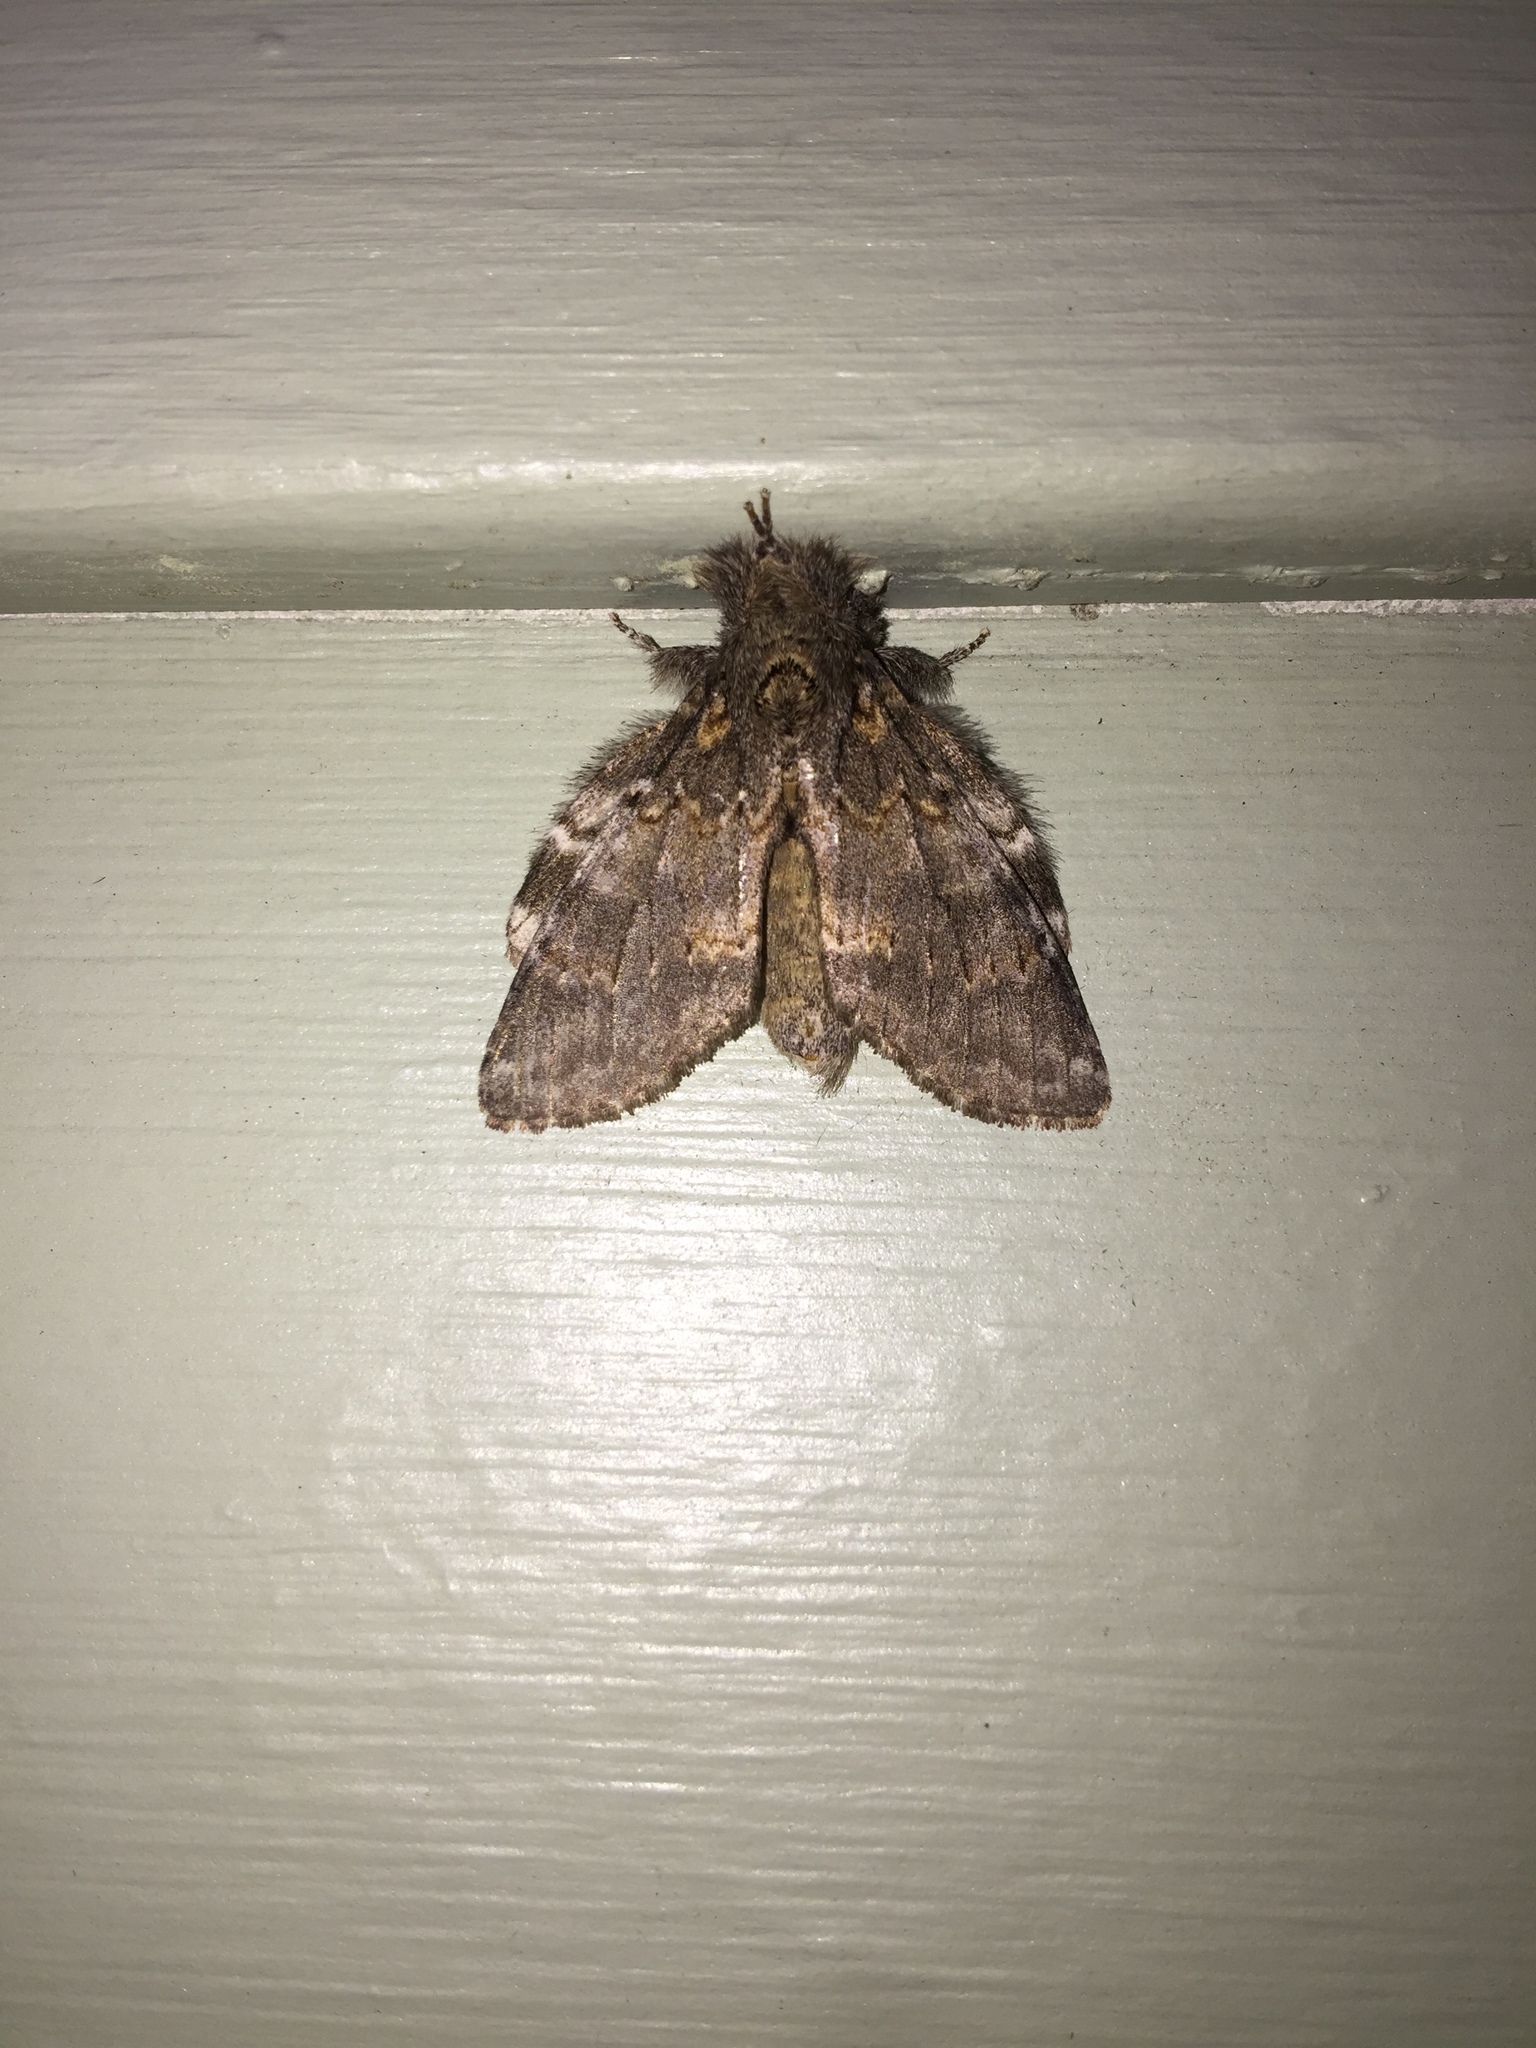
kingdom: Animalia
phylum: Arthropoda
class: Insecta
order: Lepidoptera
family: Notodontidae
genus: Peridea
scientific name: Peridea angulosa
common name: Angulose prominent
